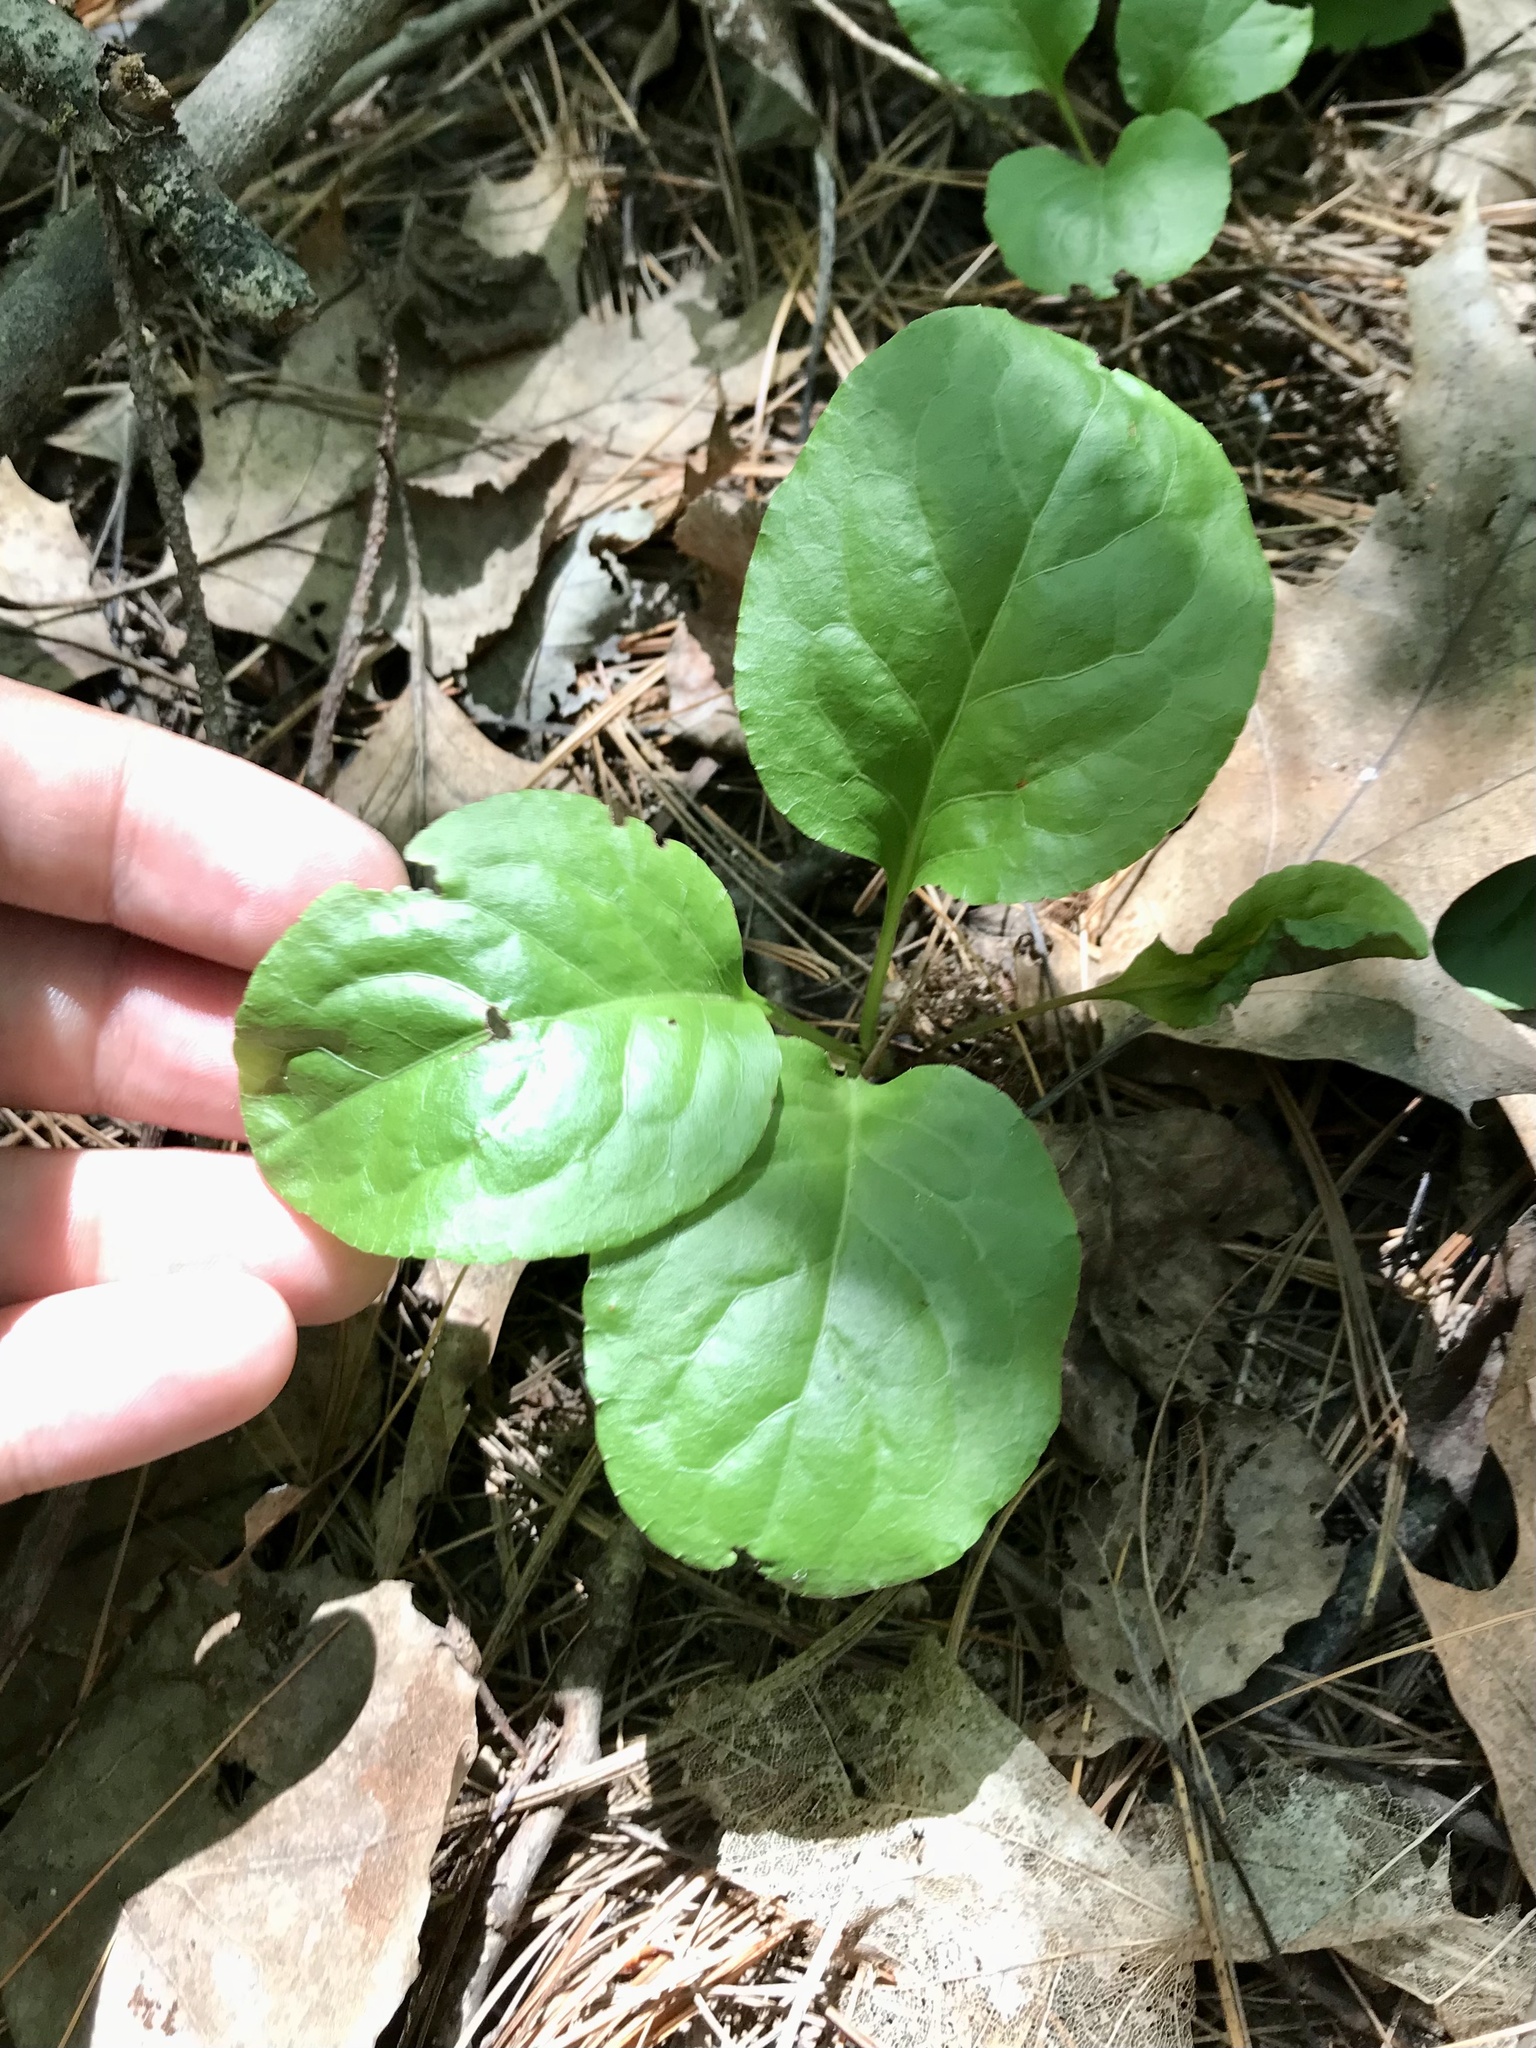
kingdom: Plantae
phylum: Tracheophyta
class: Magnoliopsida
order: Ericales
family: Ericaceae
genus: Pyrola
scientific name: Pyrola elliptica
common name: Shinleaf
